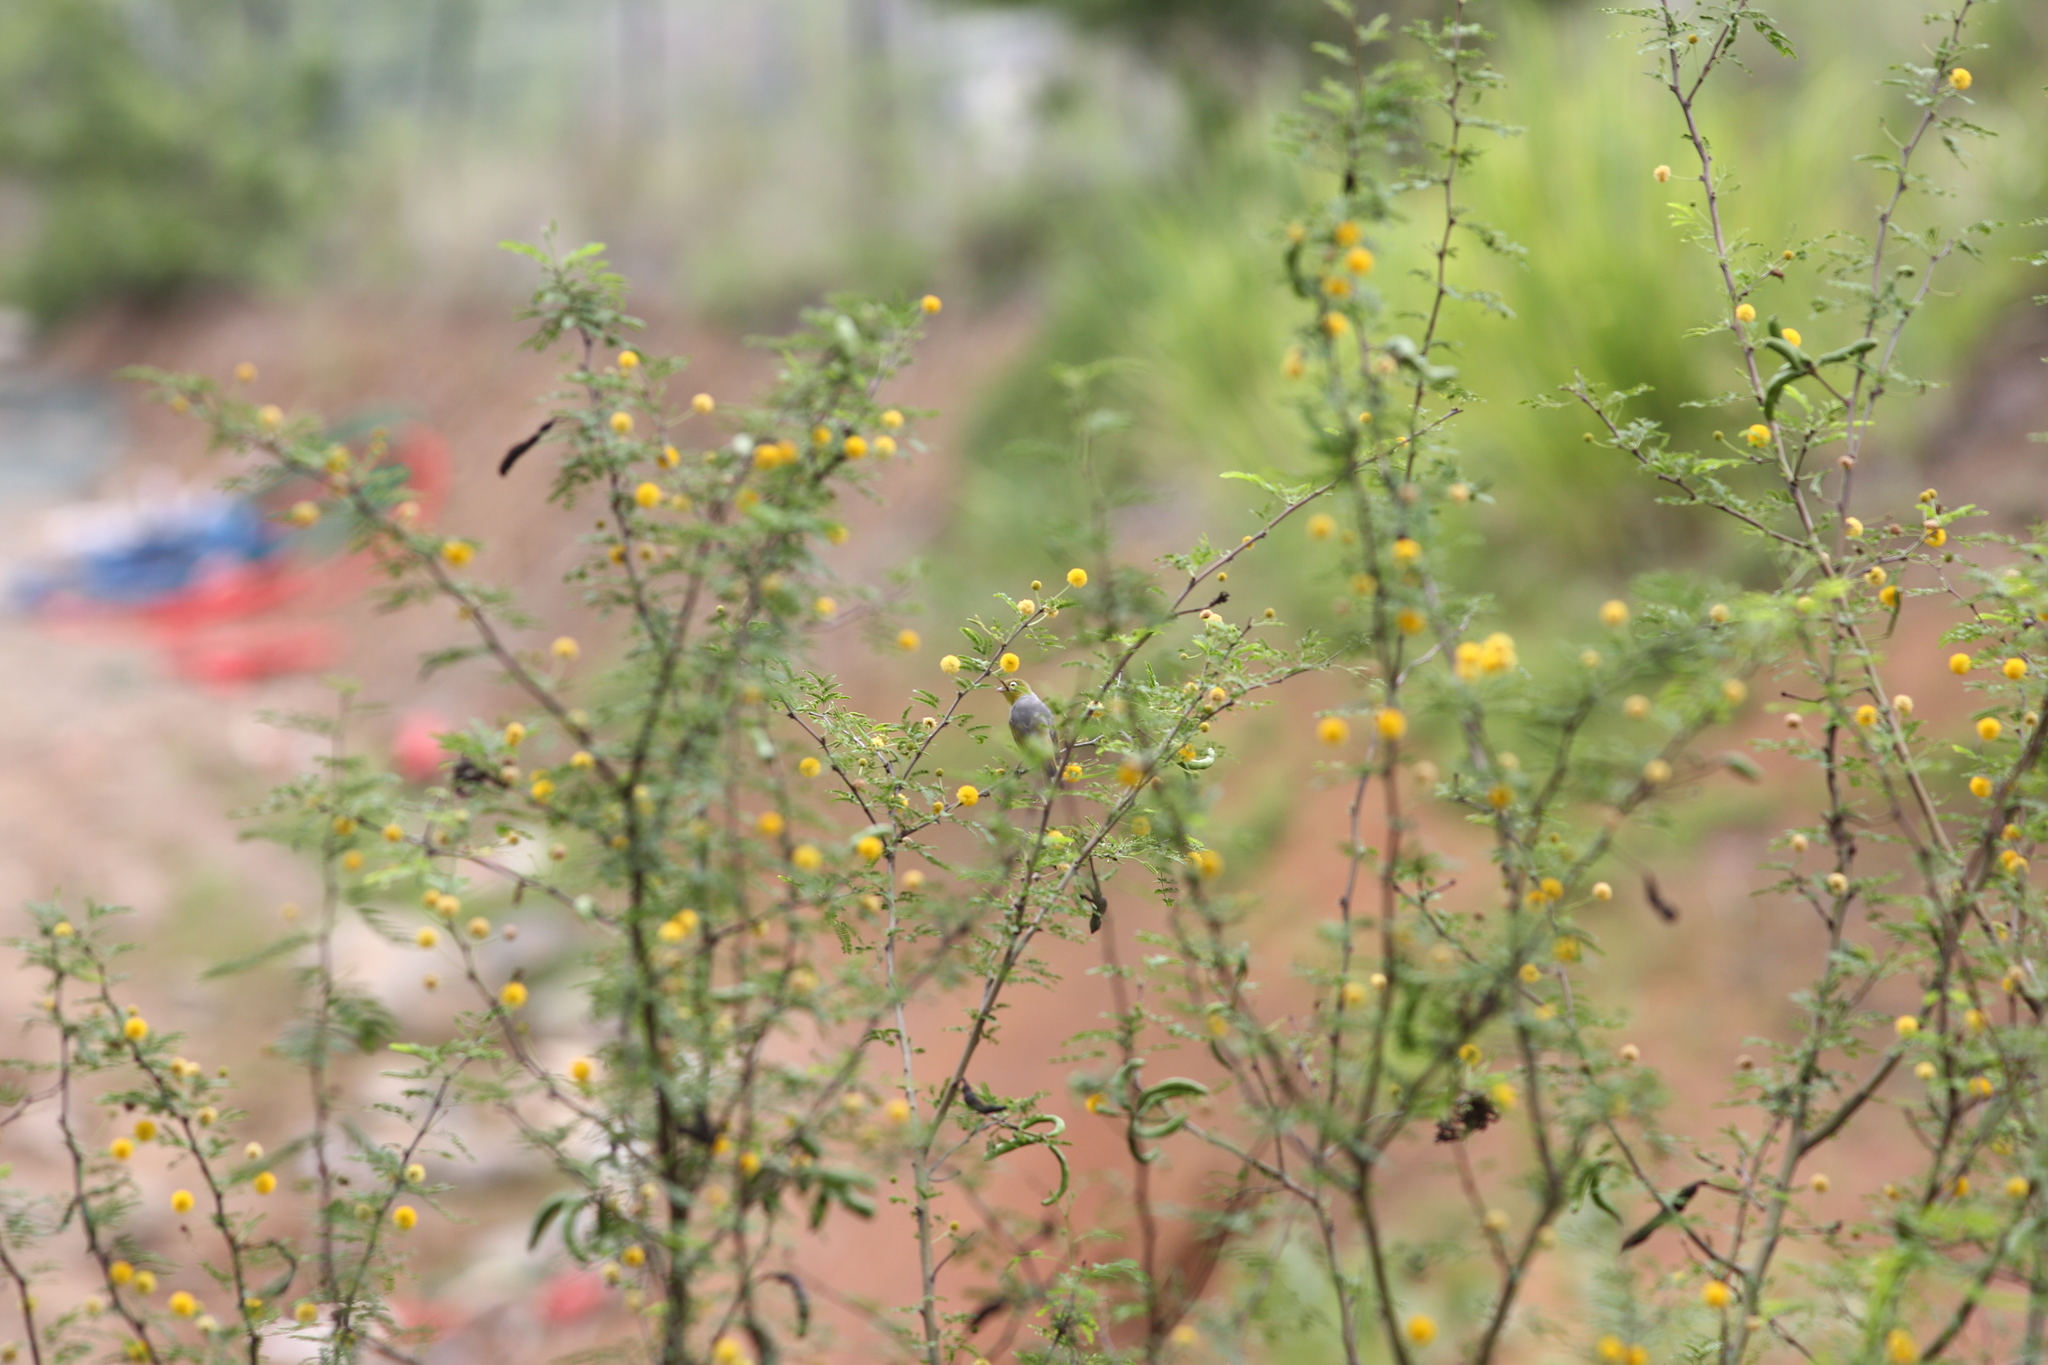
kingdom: Animalia
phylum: Chordata
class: Aves
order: Passeriformes
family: Zosteropidae
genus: Zosterops
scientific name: Zosterops lateralis
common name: Silvereye
